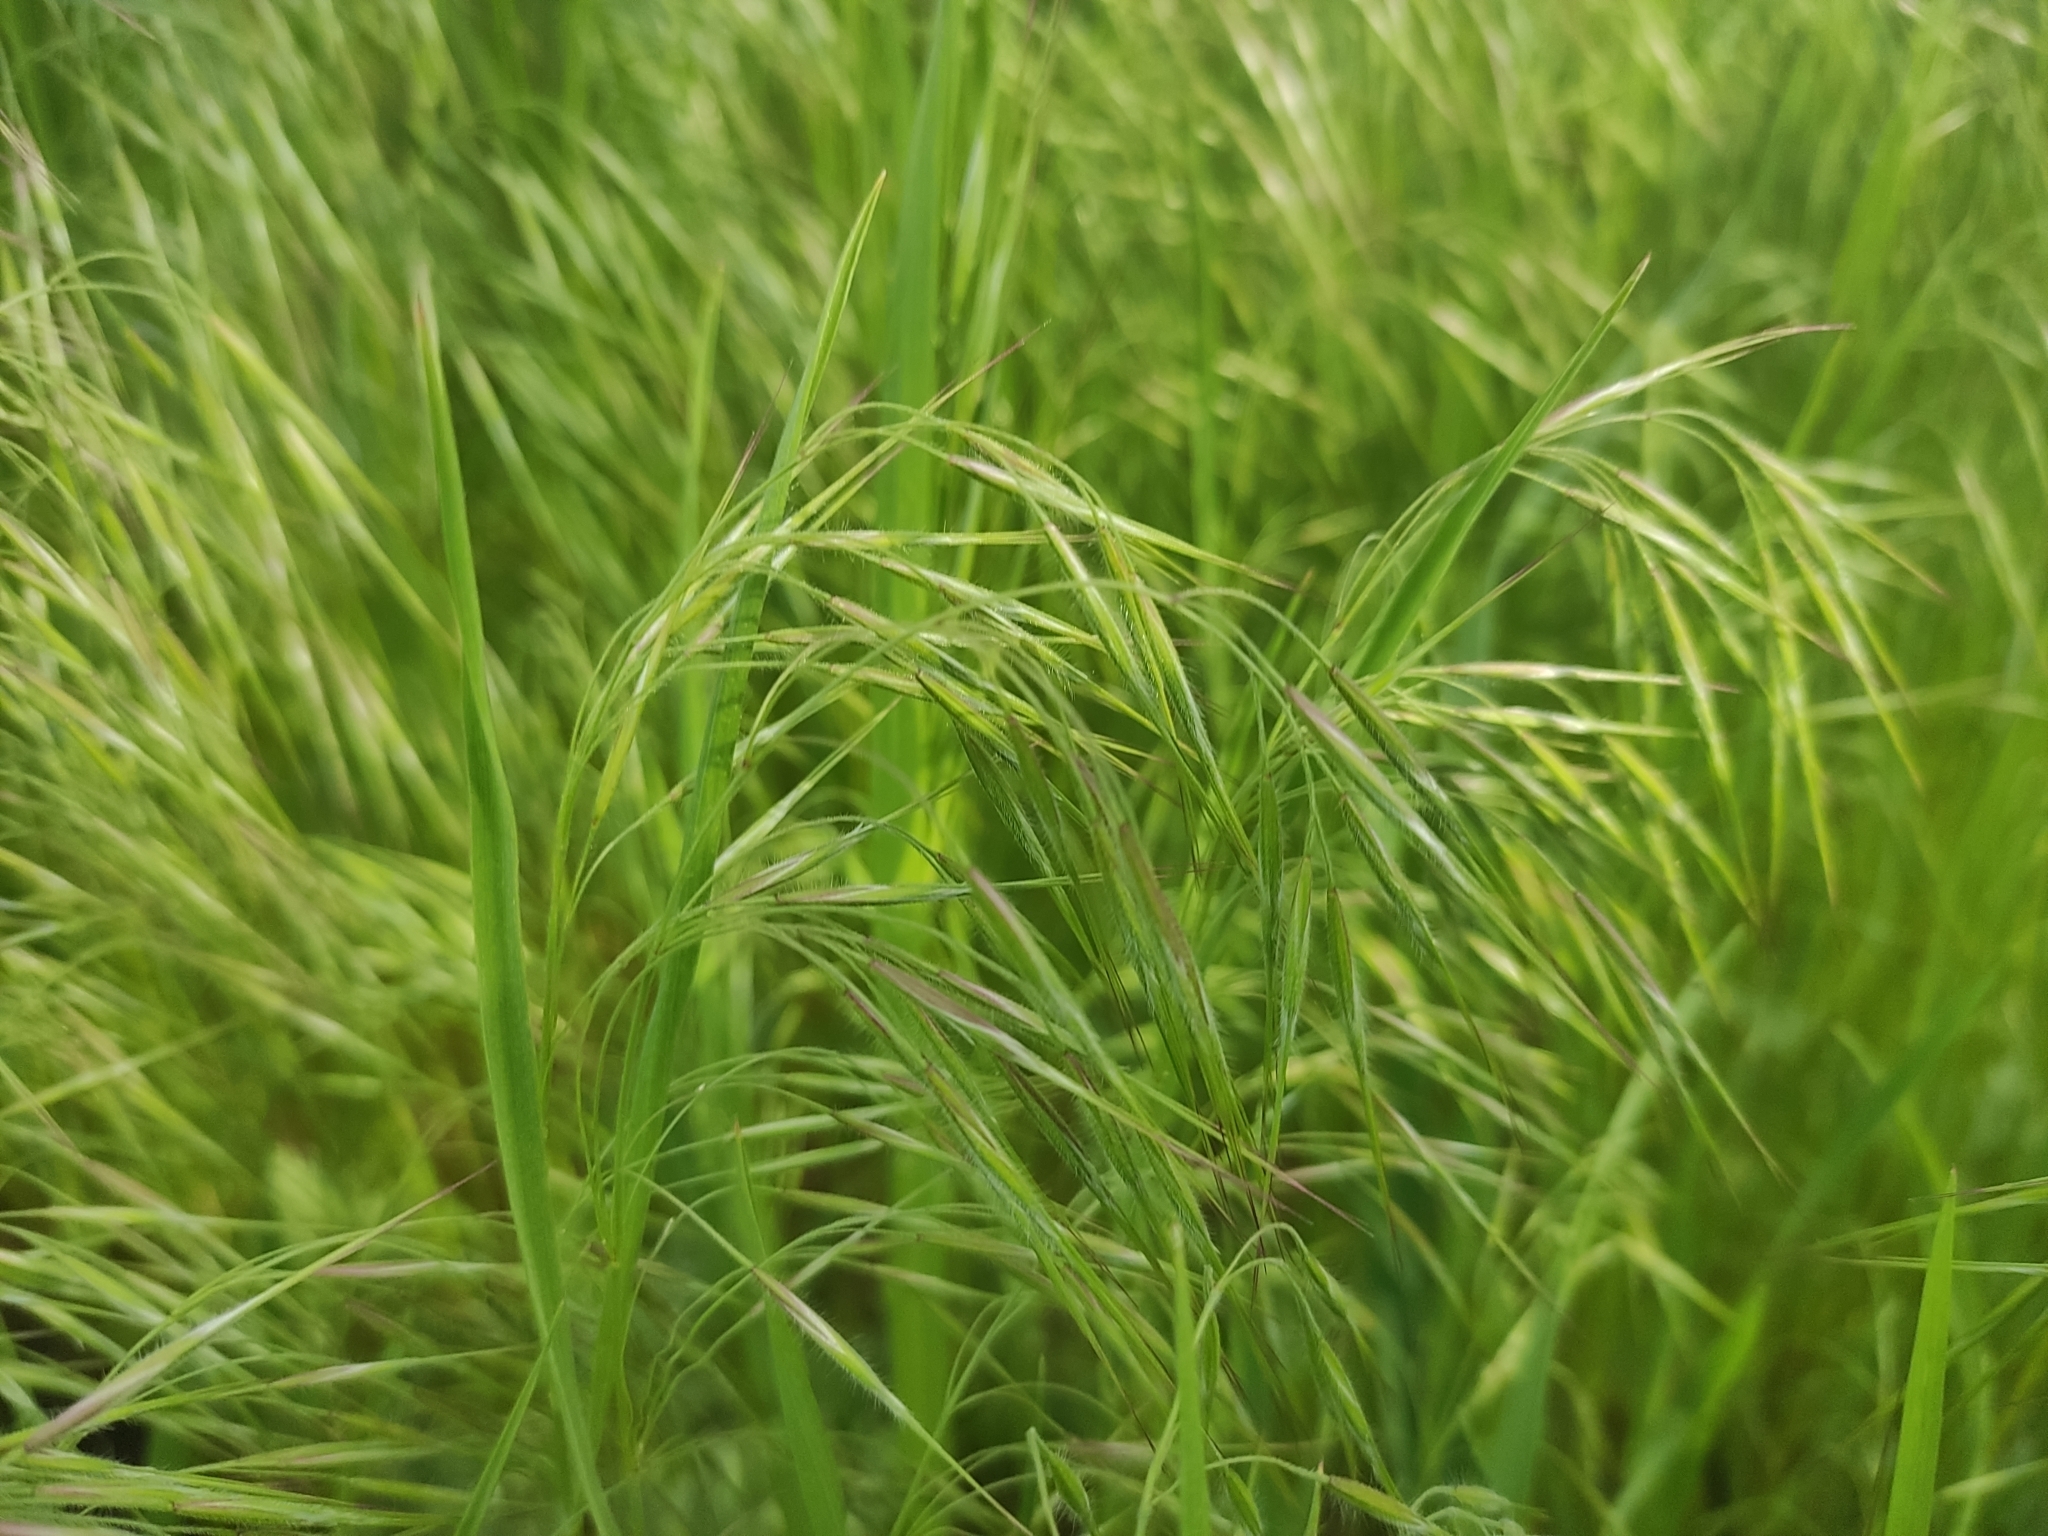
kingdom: Plantae
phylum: Tracheophyta
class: Liliopsida
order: Poales
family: Poaceae
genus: Bromus
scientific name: Bromus tectorum
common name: Cheatgrass
